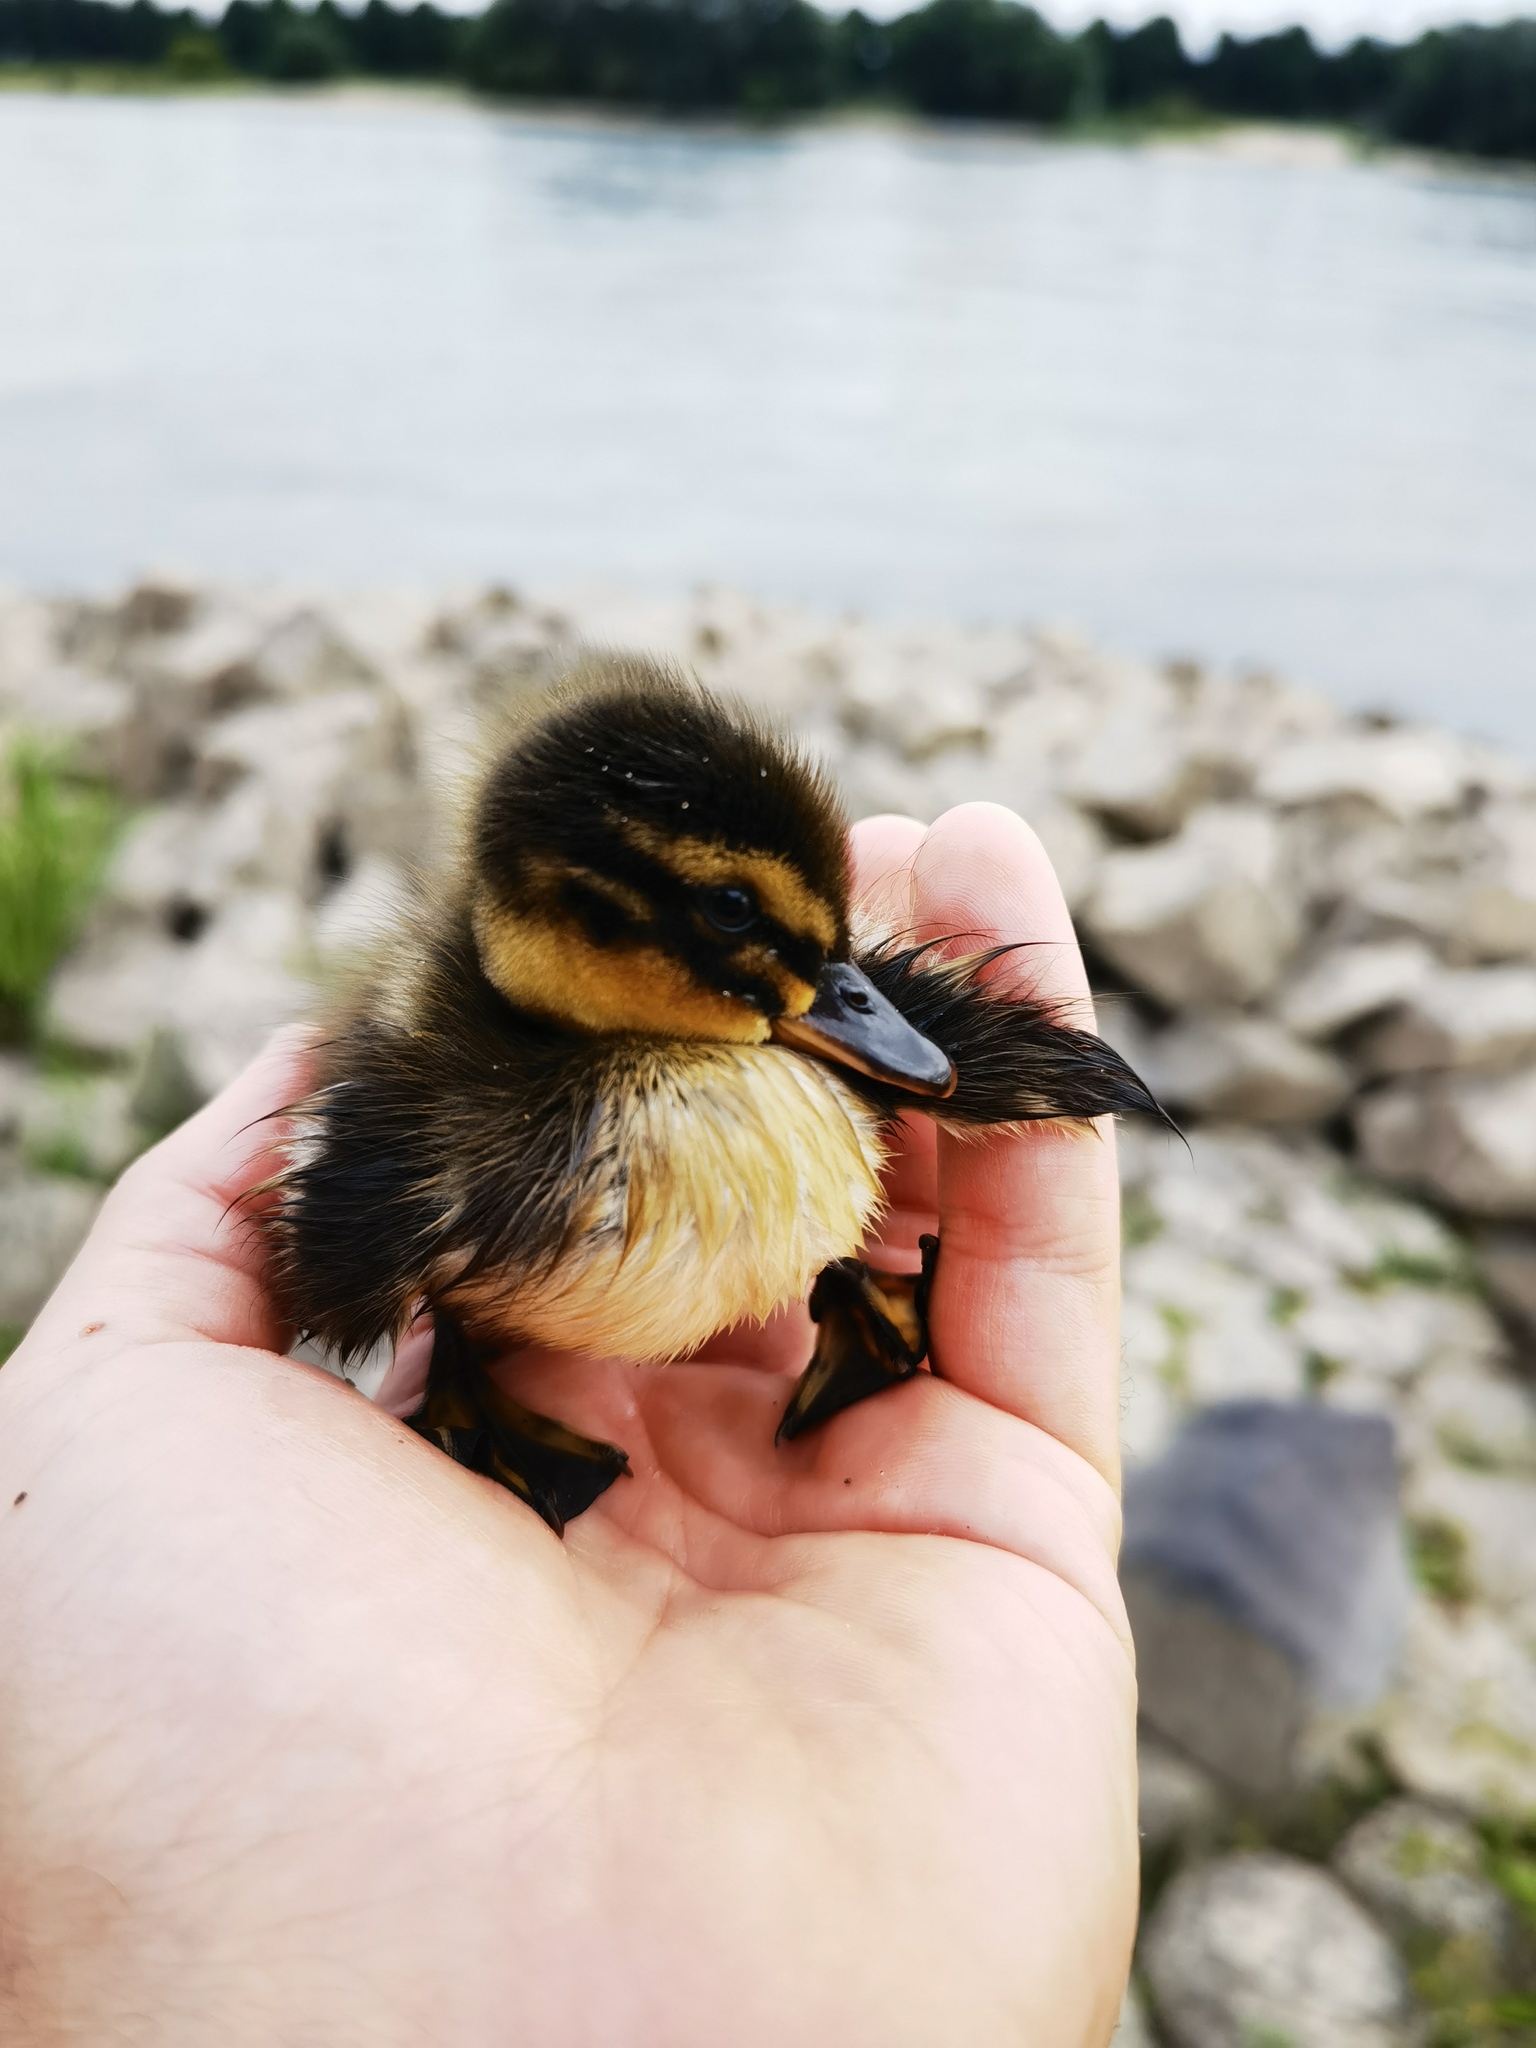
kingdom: Animalia
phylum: Chordata
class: Aves
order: Anseriformes
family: Anatidae
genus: Anas
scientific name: Anas platyrhynchos
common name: Mallard
